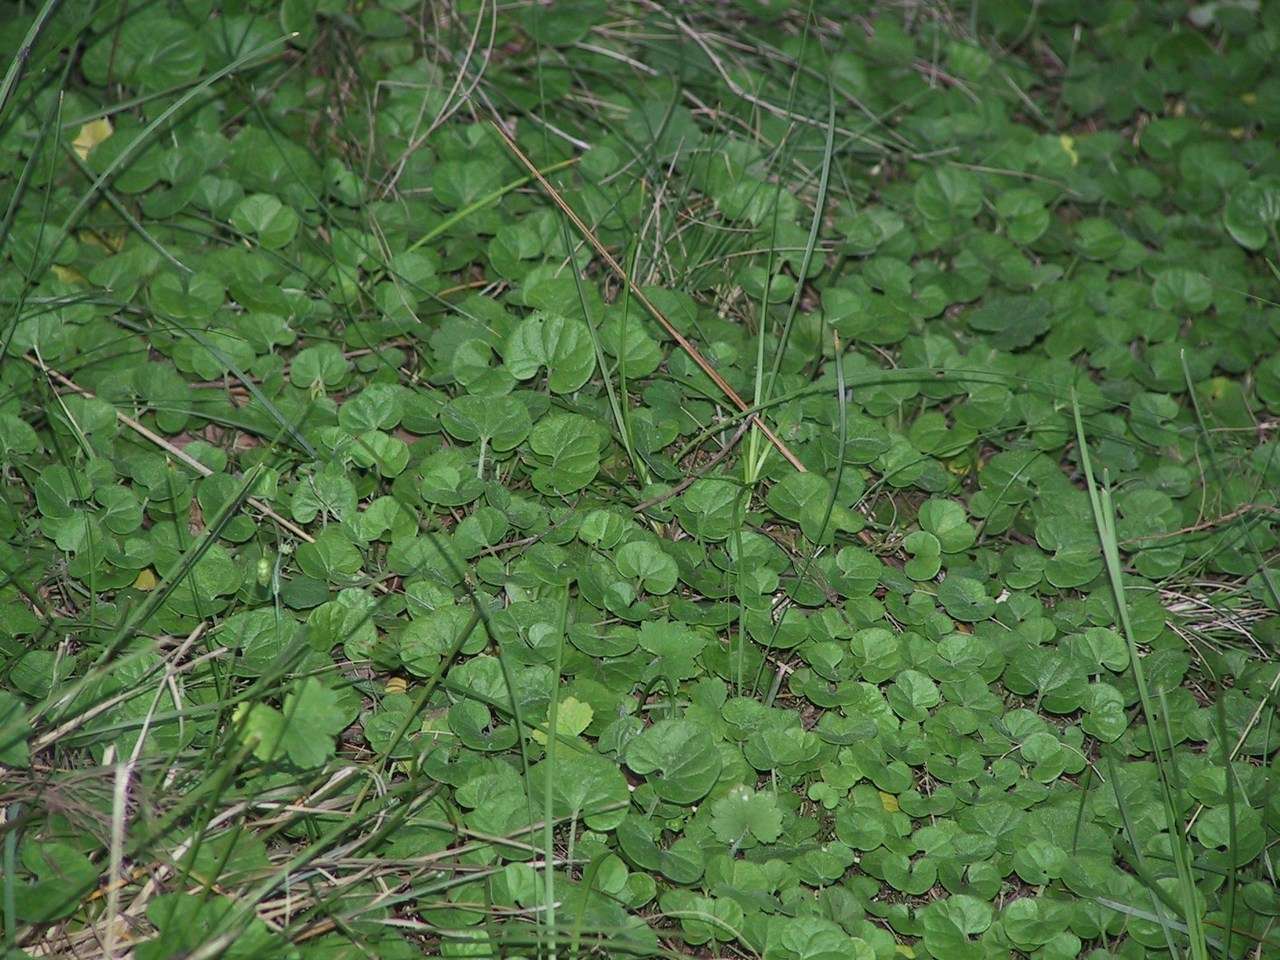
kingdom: Plantae
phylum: Tracheophyta
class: Magnoliopsida
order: Solanales
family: Convolvulaceae
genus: Dichondra
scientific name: Dichondra repens
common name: Kidneyweed
